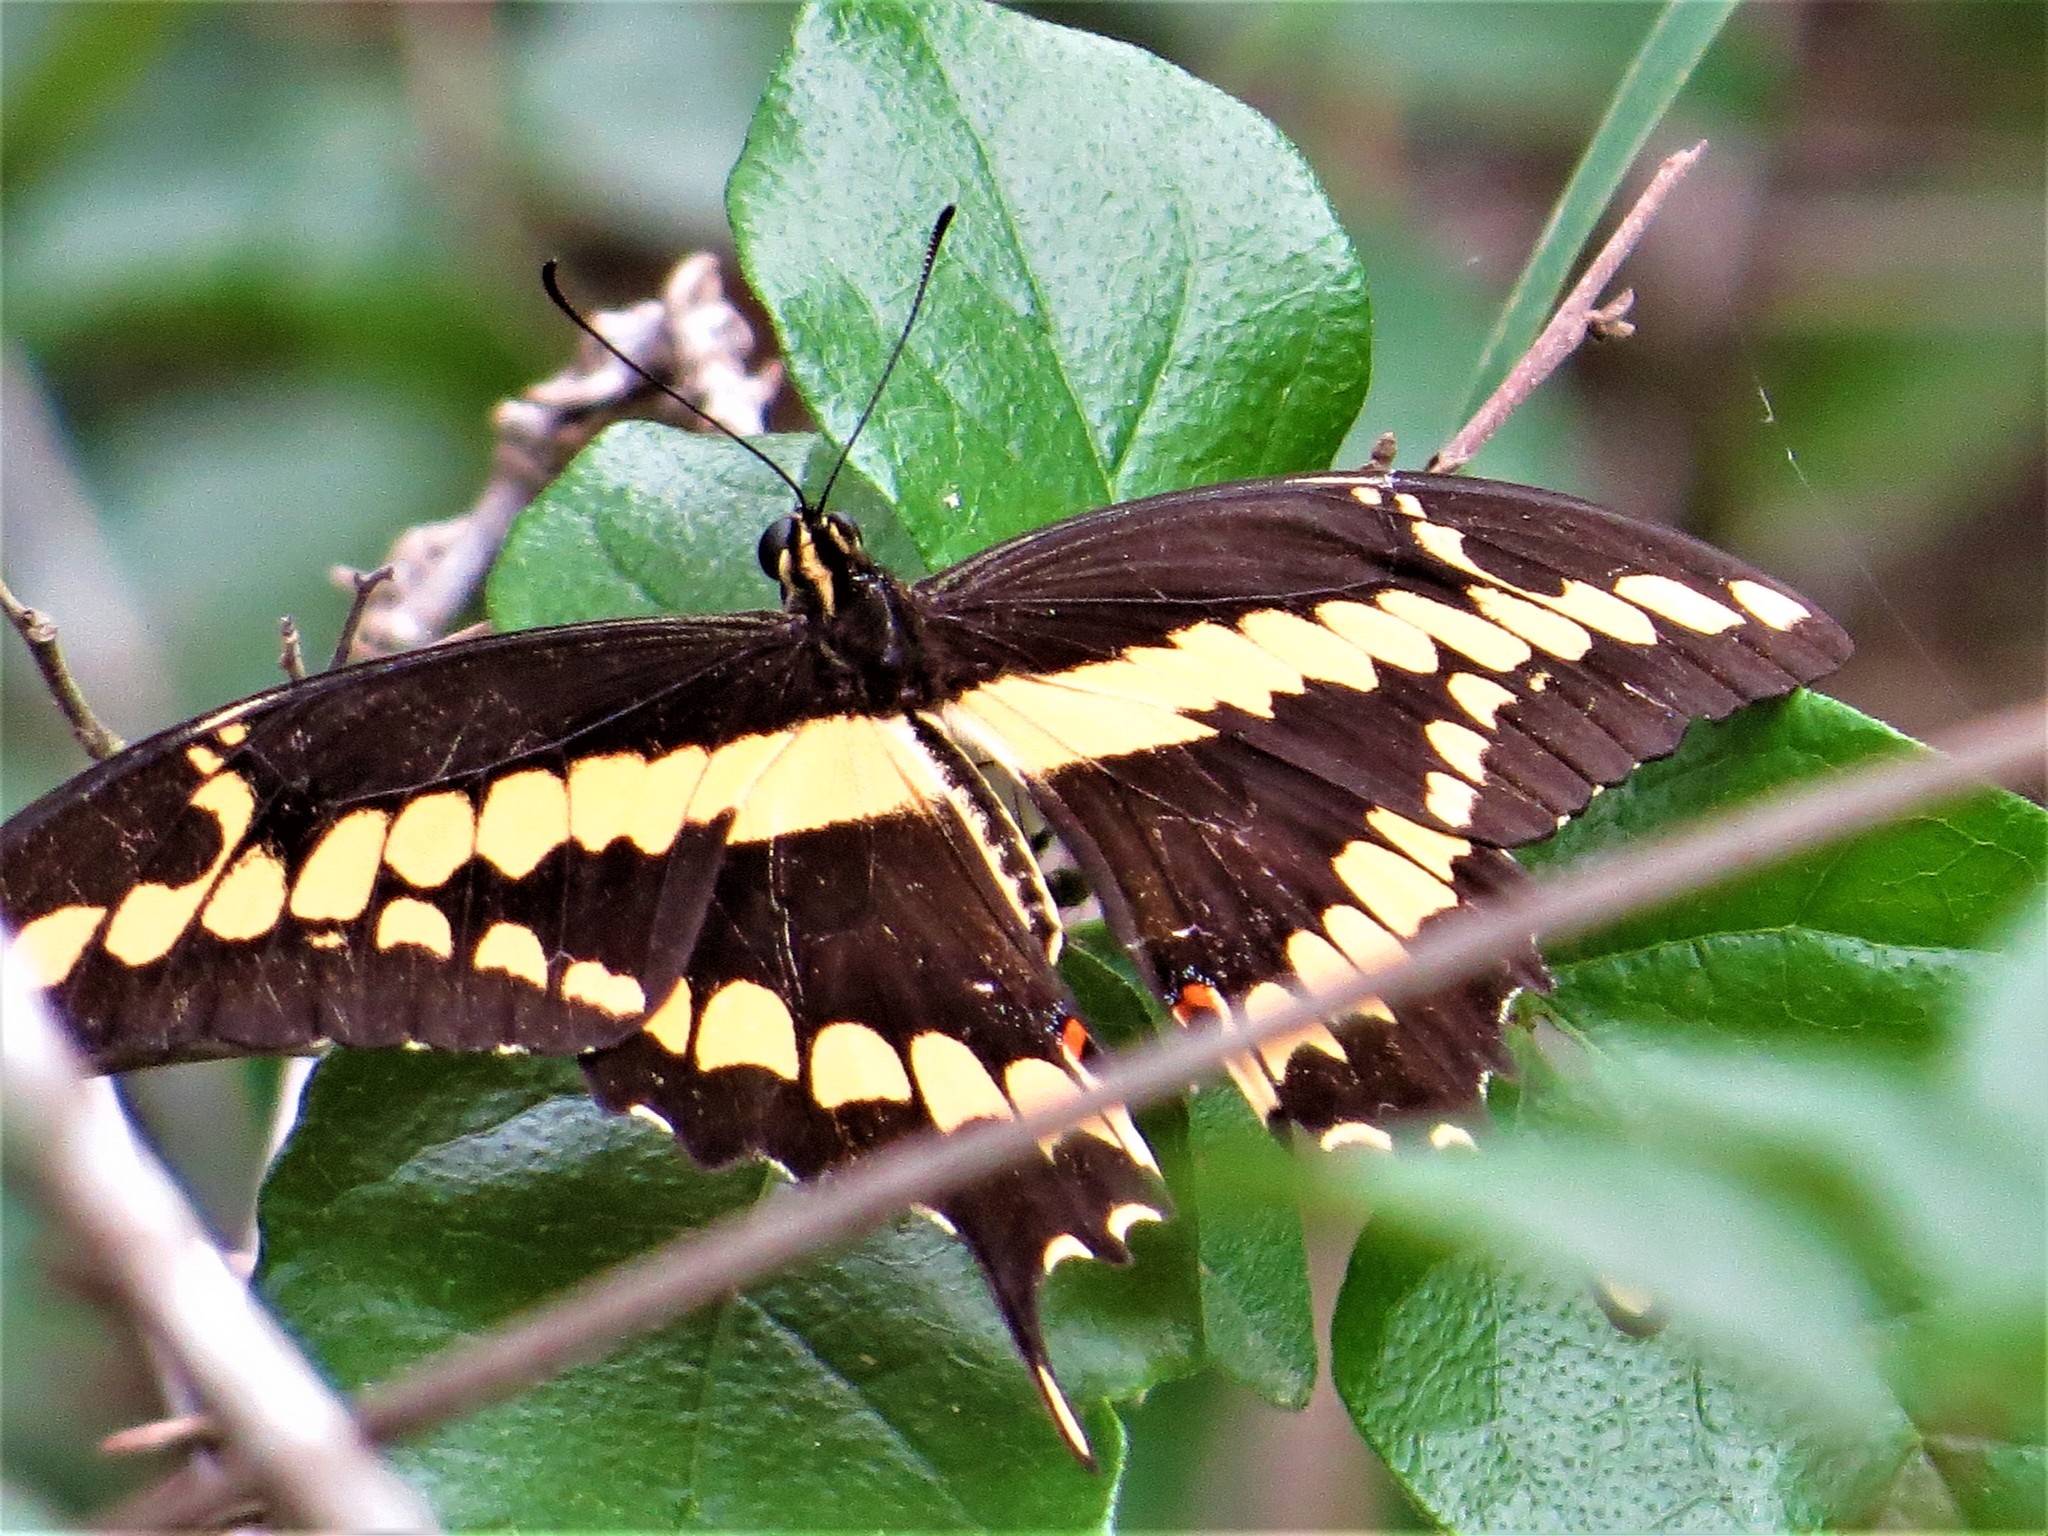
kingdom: Animalia
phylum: Arthropoda
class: Insecta
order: Lepidoptera
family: Papilionidae
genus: Papilio
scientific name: Papilio rumiko
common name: Western giant swallowtail
